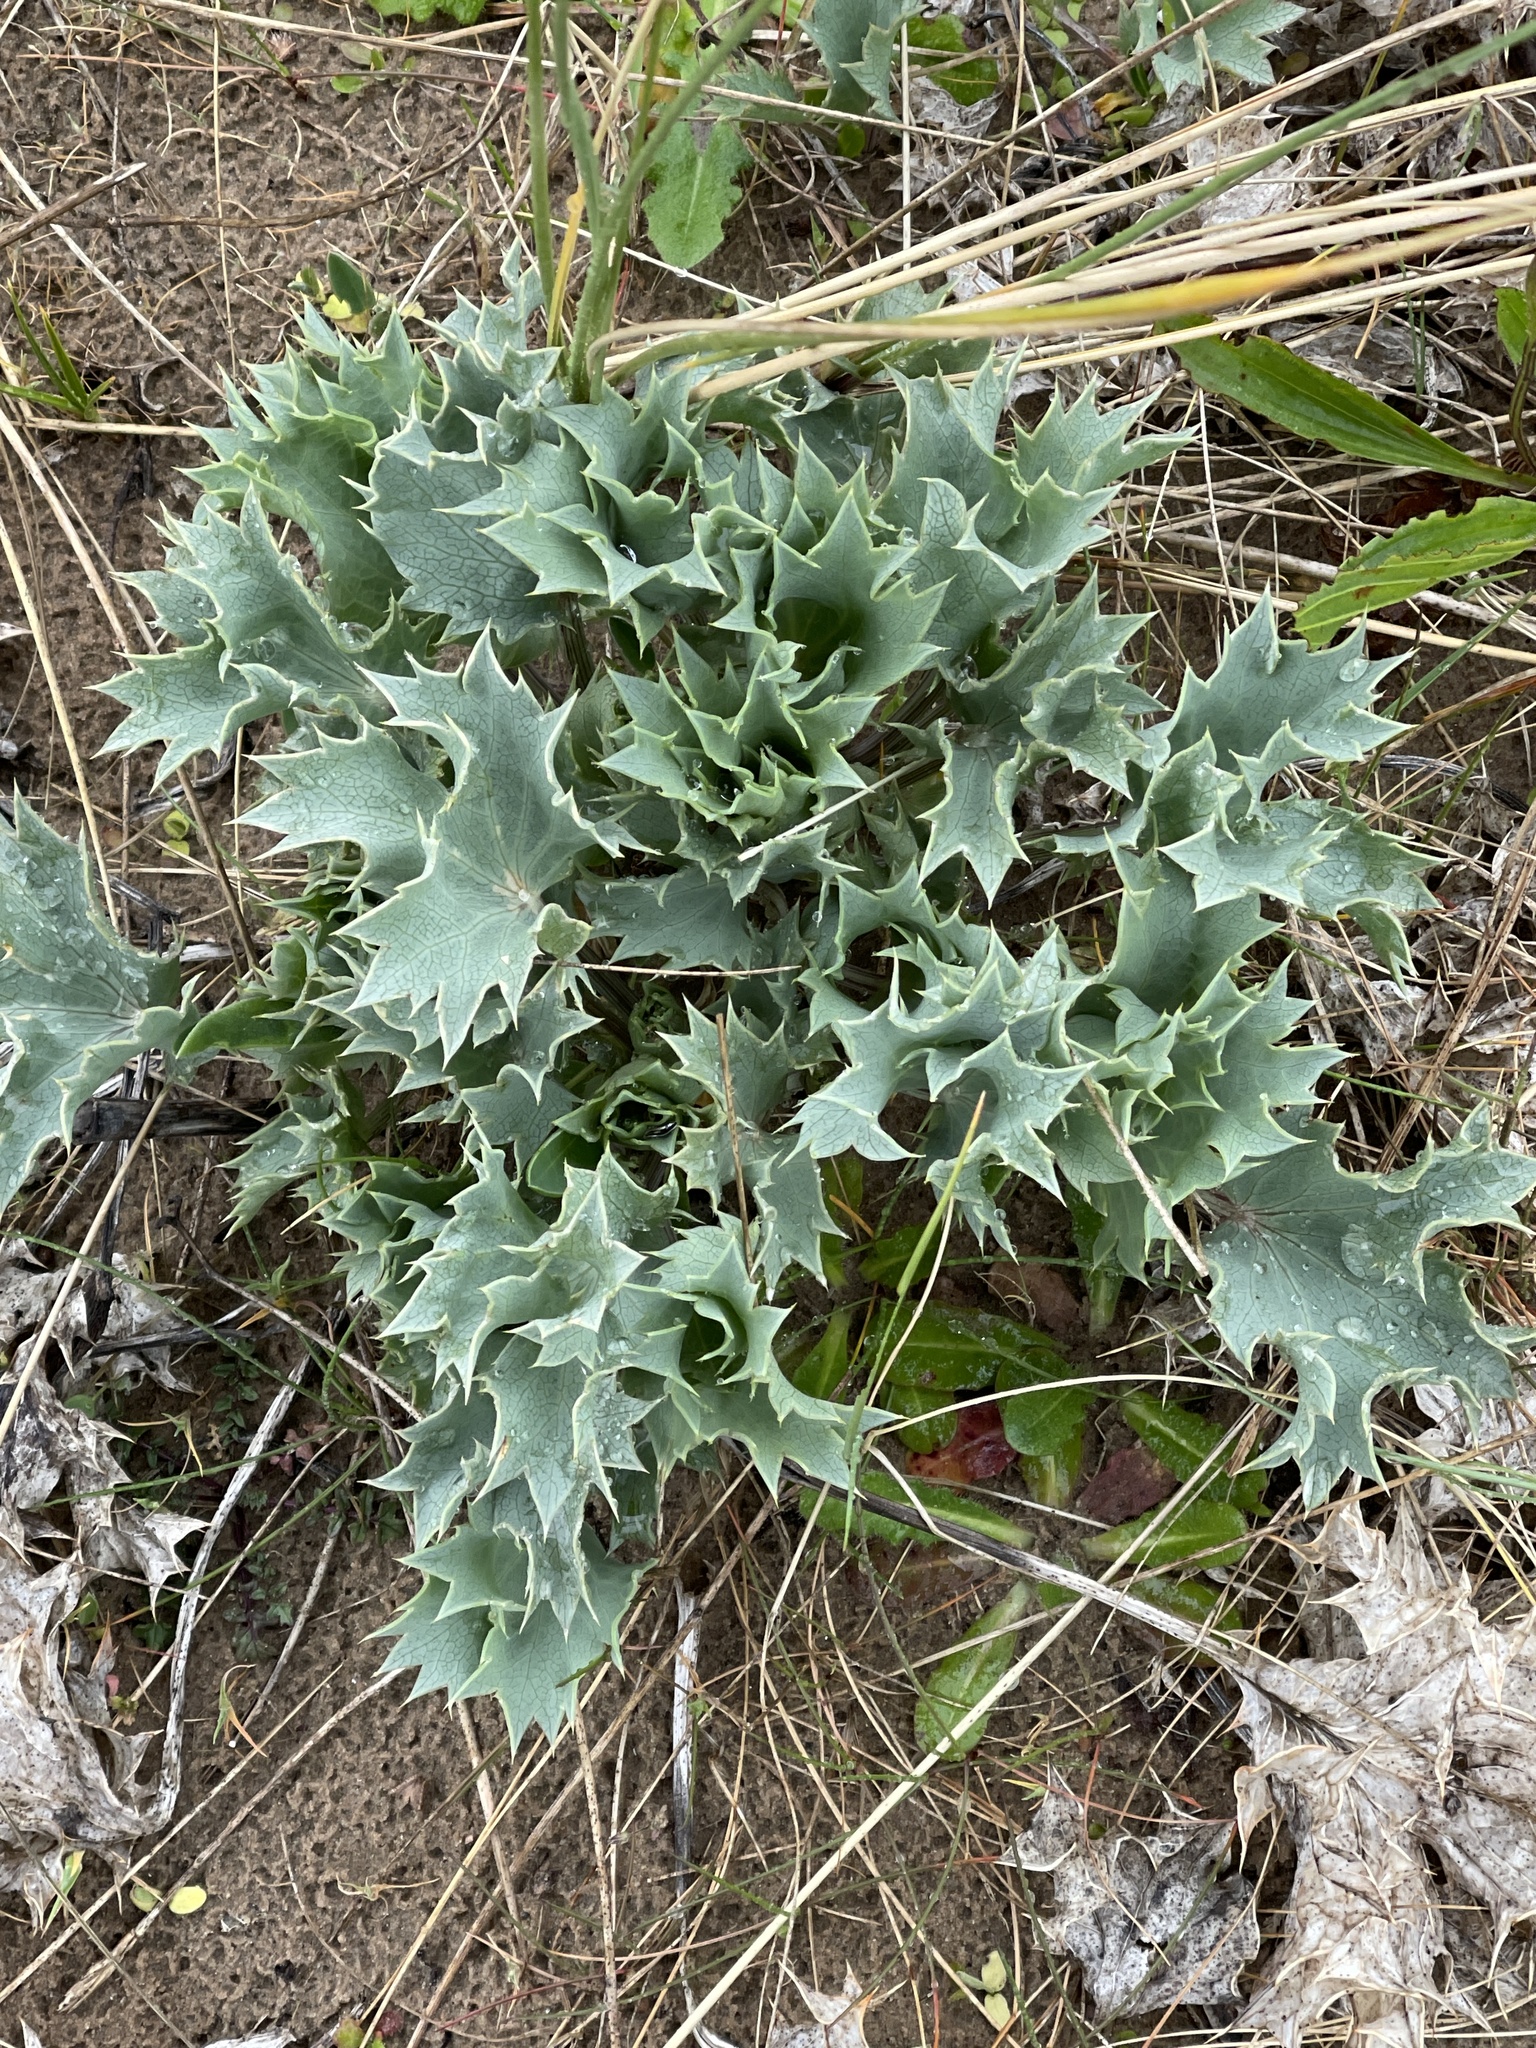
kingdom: Plantae
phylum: Tracheophyta
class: Magnoliopsida
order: Apiales
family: Apiaceae
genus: Eryngium
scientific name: Eryngium maritimum
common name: Sea-holly
